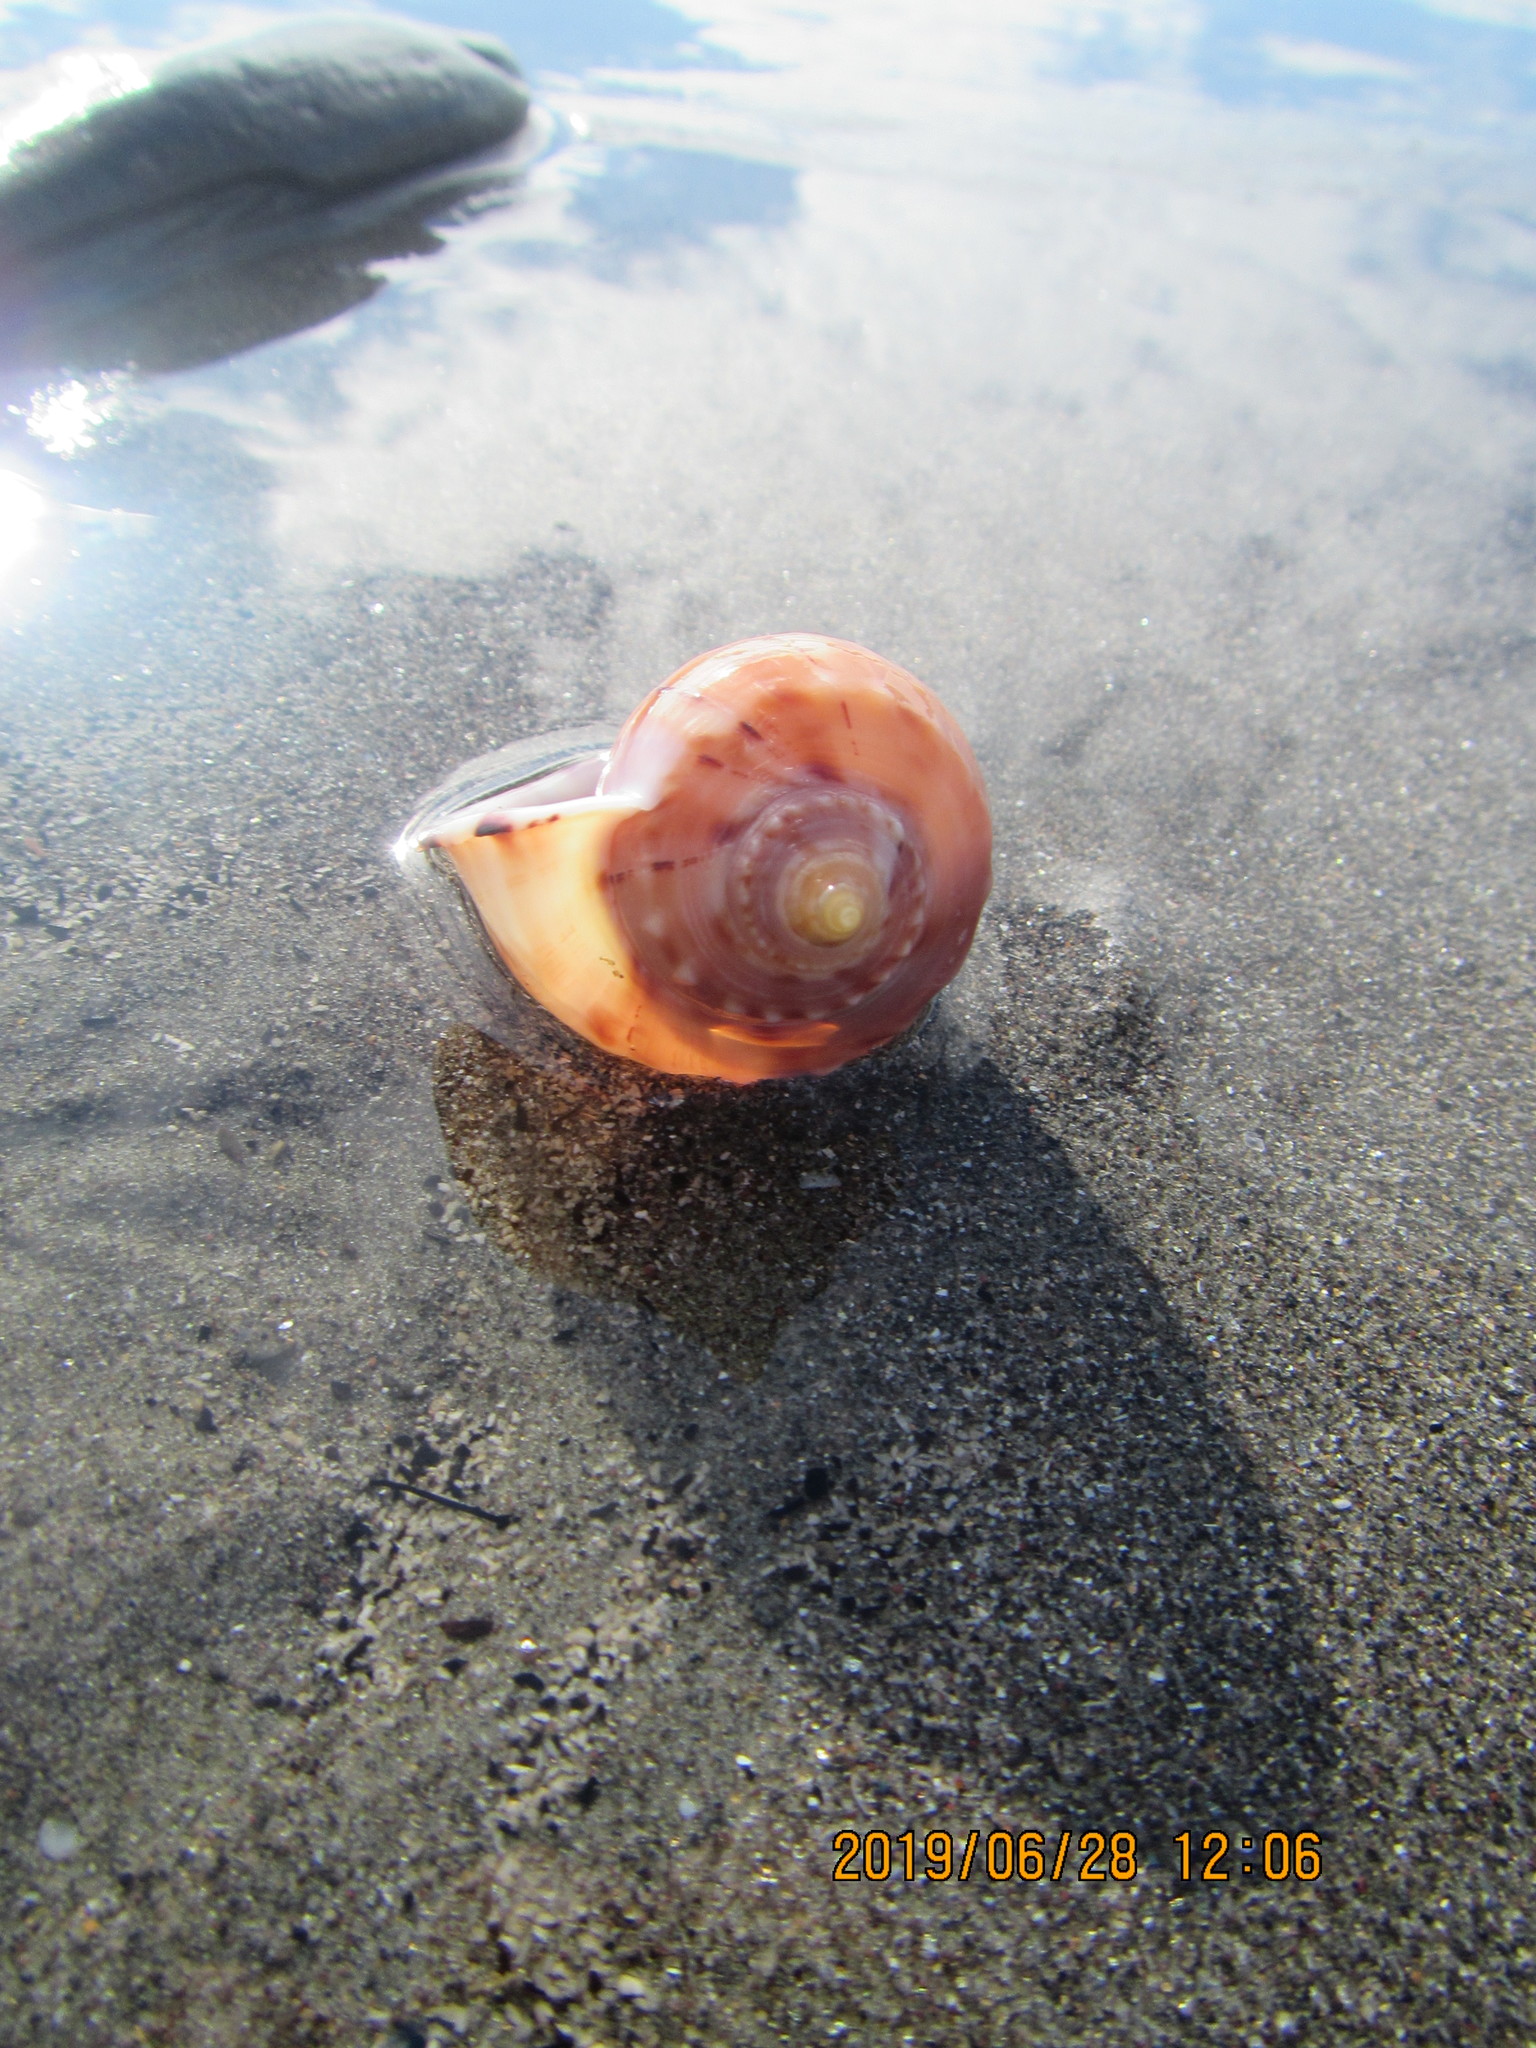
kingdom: Animalia
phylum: Mollusca
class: Gastropoda
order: Littorinimorpha
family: Cassidae
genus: Semicassis
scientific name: Semicassis pyrum
